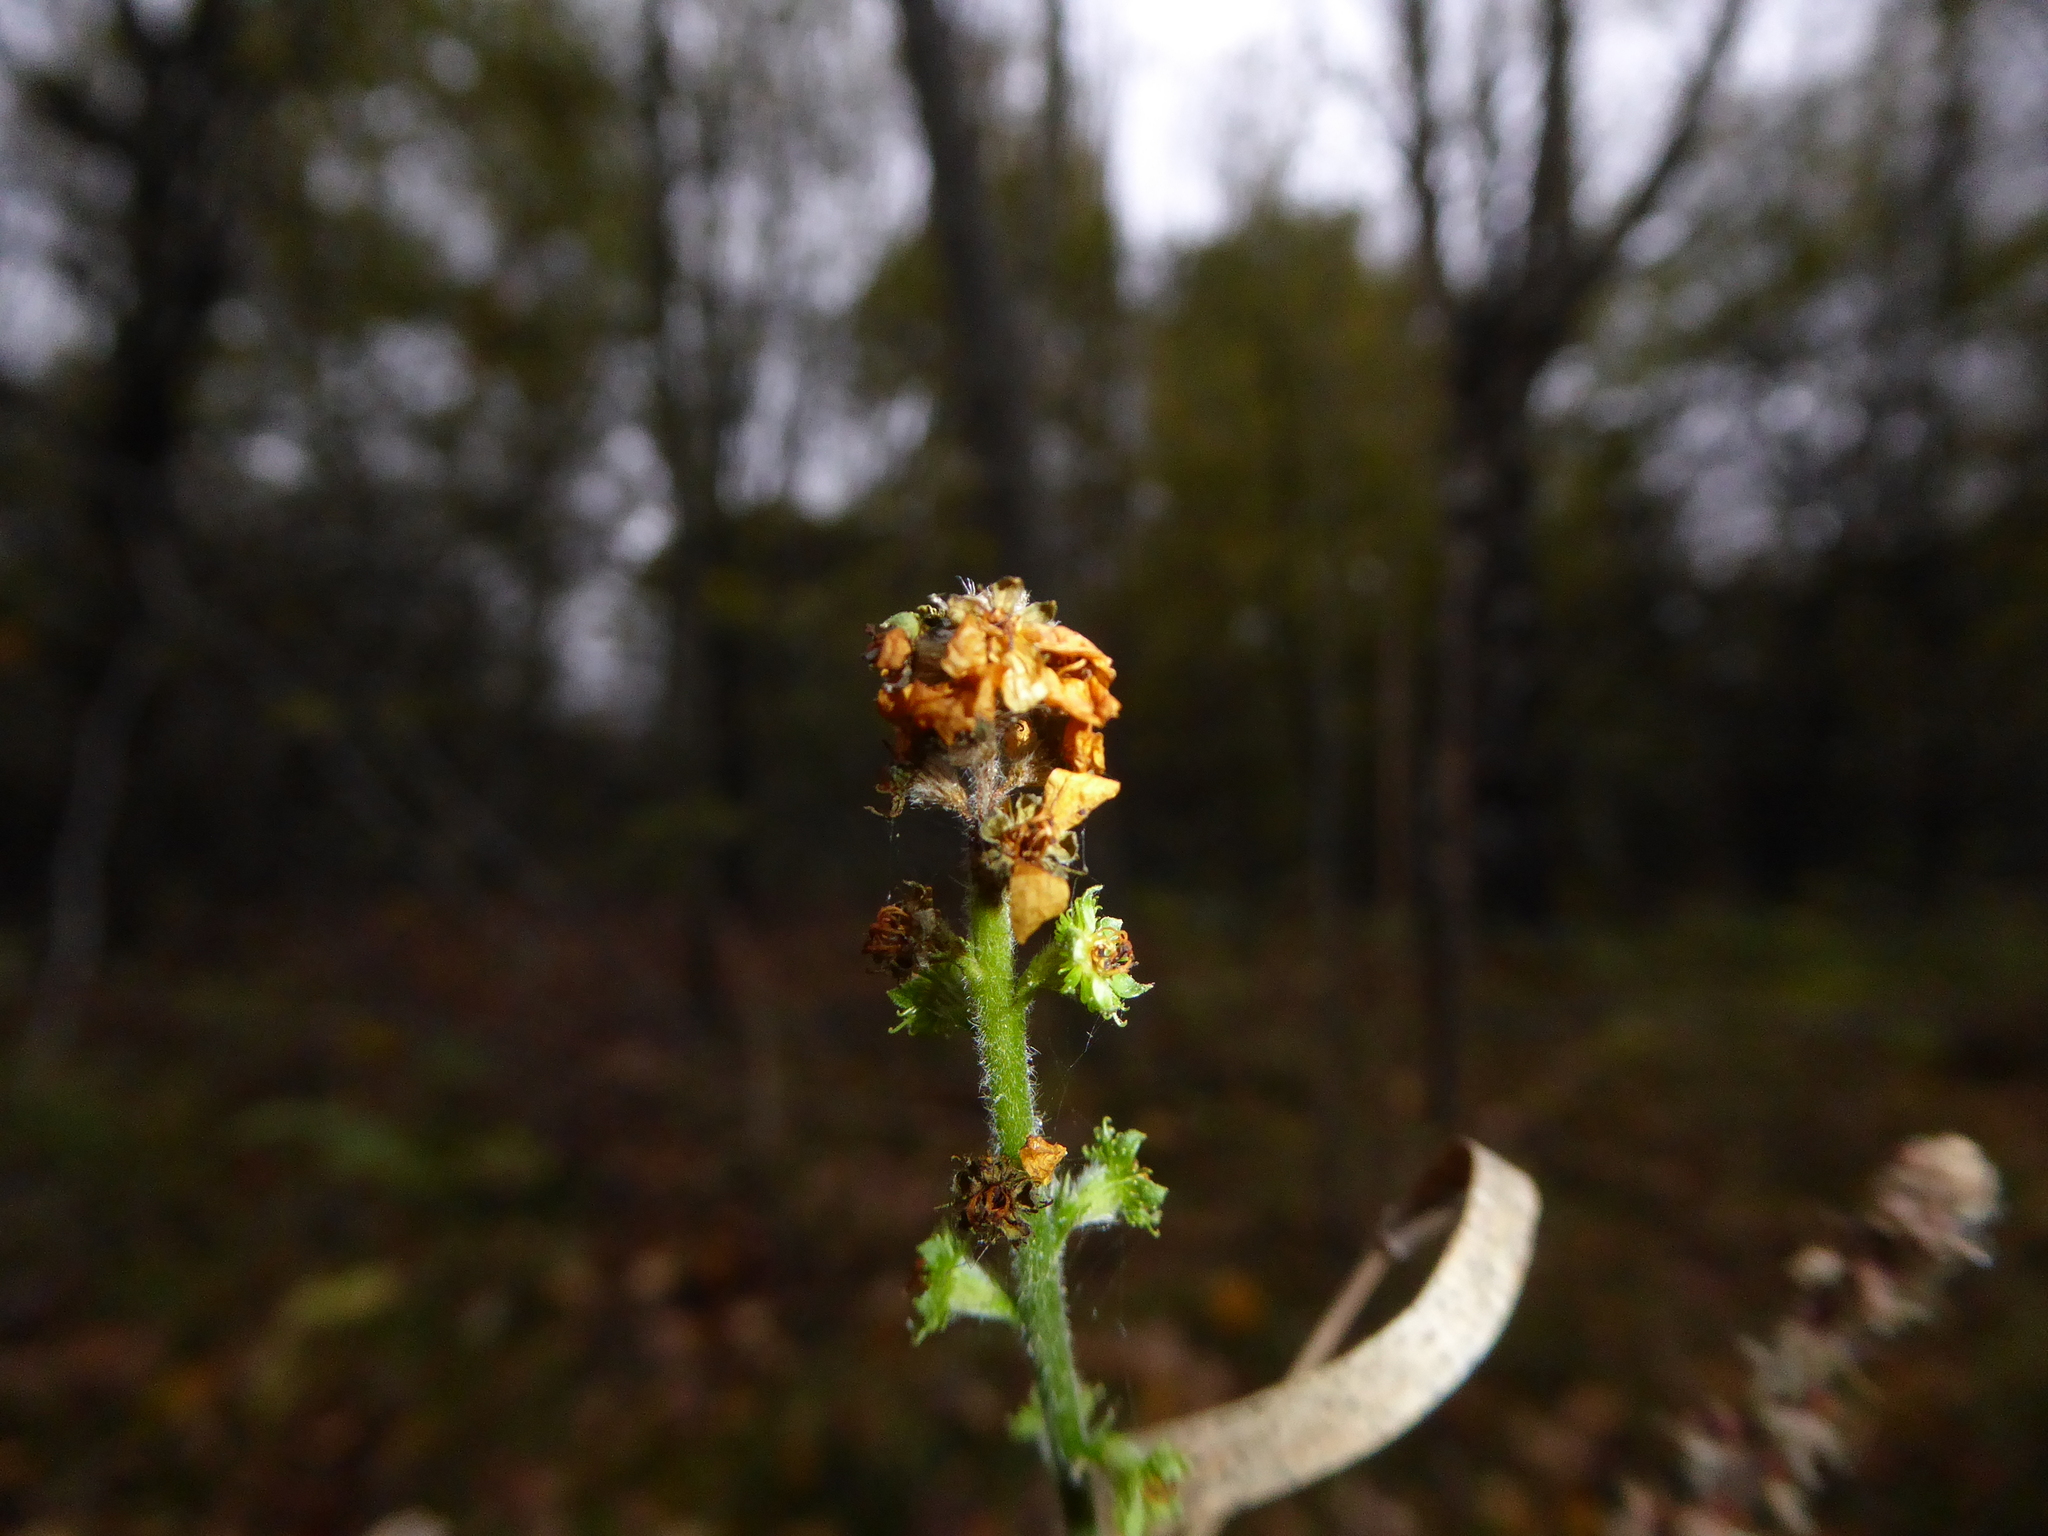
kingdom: Plantae
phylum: Tracheophyta
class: Magnoliopsida
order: Rosales
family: Rosaceae
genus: Agrimonia
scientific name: Agrimonia eupatoria
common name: Agrimony
